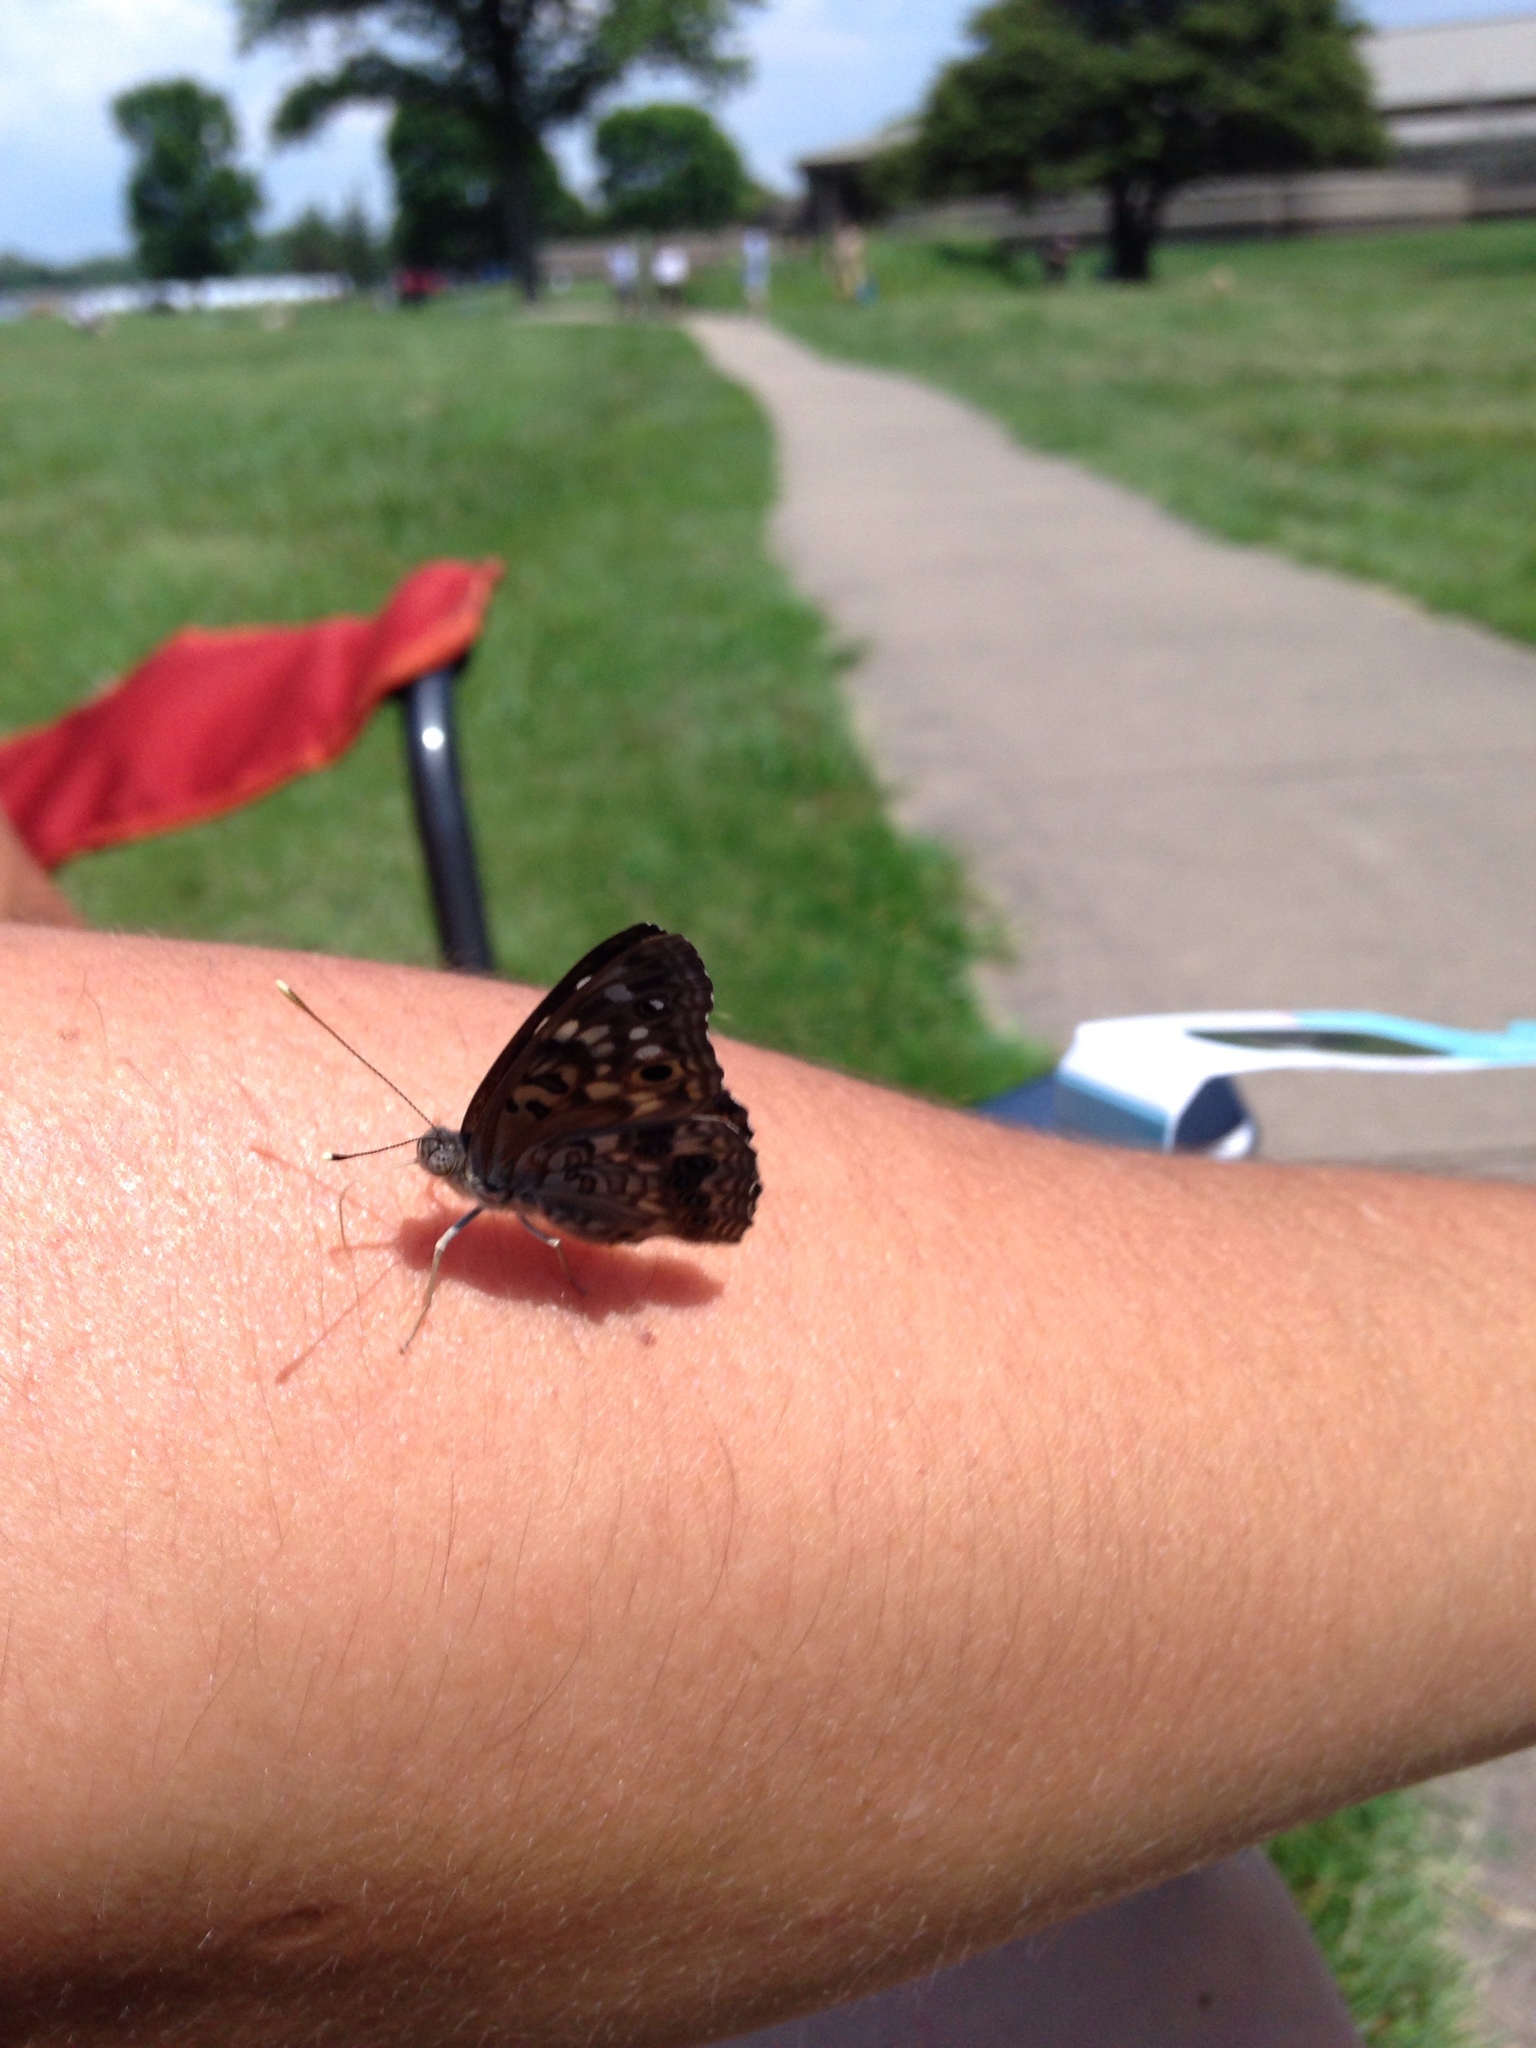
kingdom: Animalia
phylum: Arthropoda
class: Insecta
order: Lepidoptera
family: Nymphalidae
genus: Asterocampa
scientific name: Asterocampa celtis
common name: Hackberry emperor
